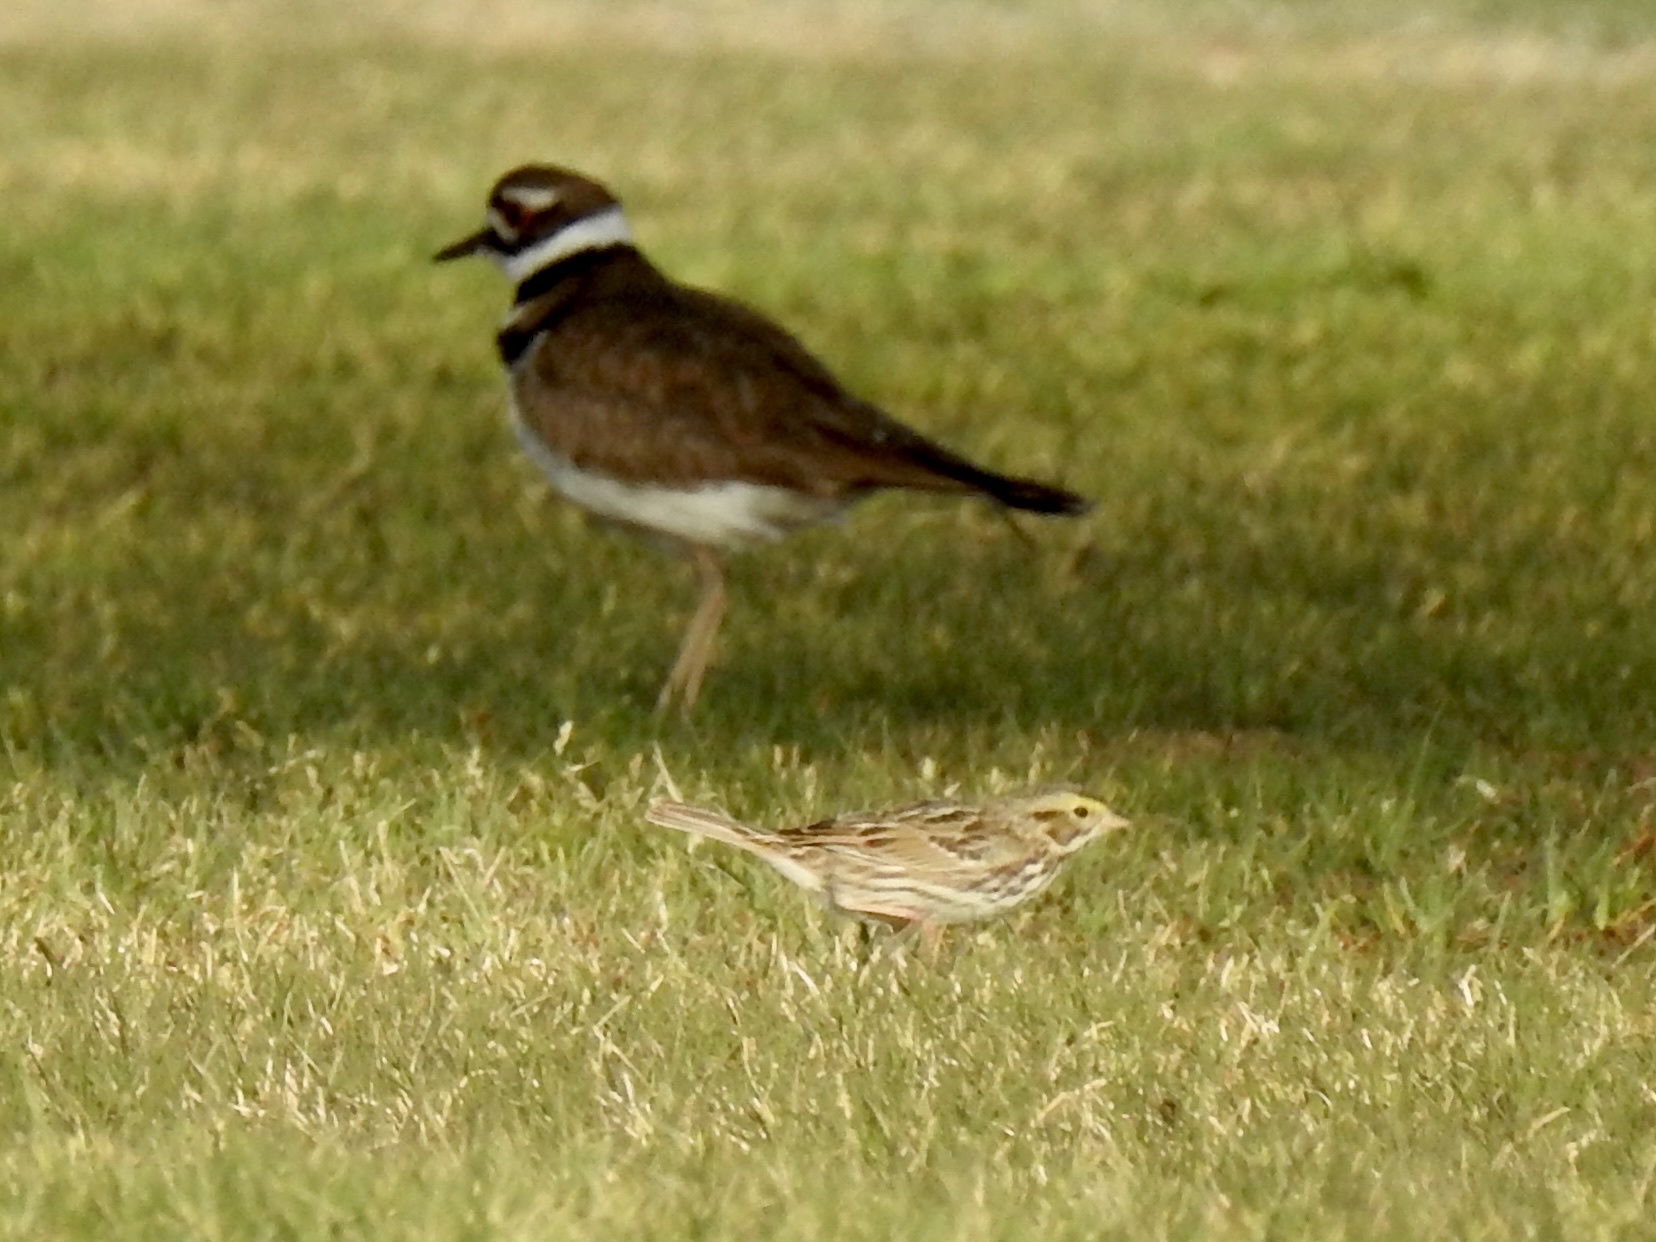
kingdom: Animalia
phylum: Chordata
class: Aves
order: Charadriiformes
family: Charadriidae
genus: Charadrius
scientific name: Charadrius vociferus
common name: Killdeer
